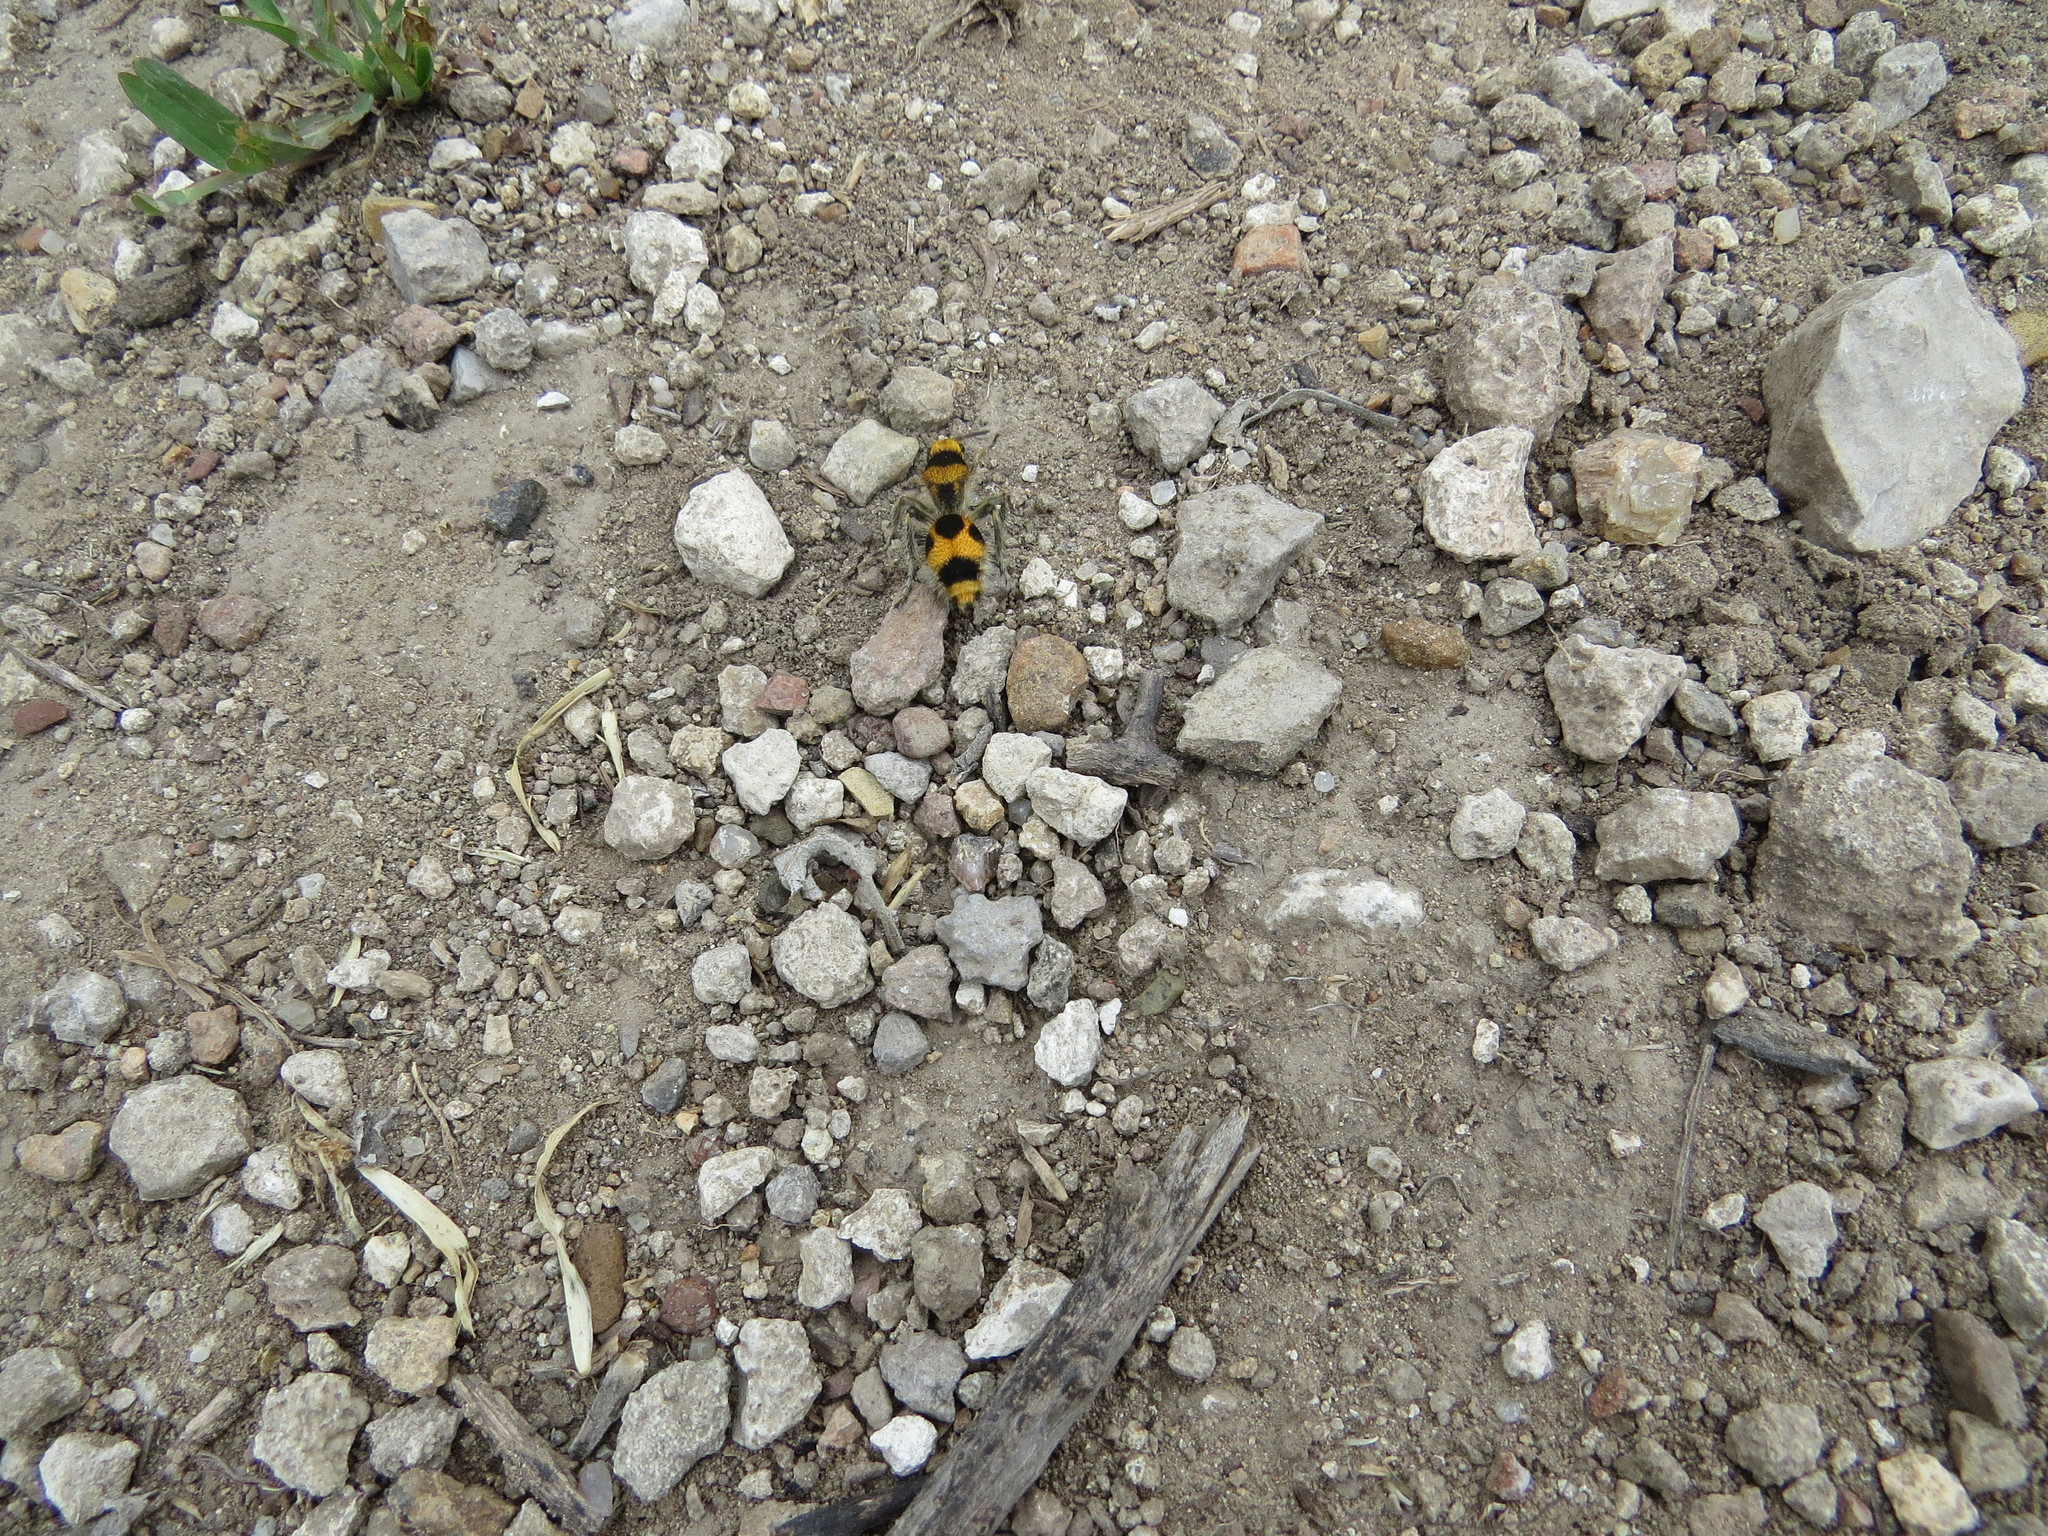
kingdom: Animalia
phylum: Arthropoda
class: Insecta
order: Hymenoptera
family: Mutillidae
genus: Dasymutilla
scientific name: Dasymutilla pulchra
